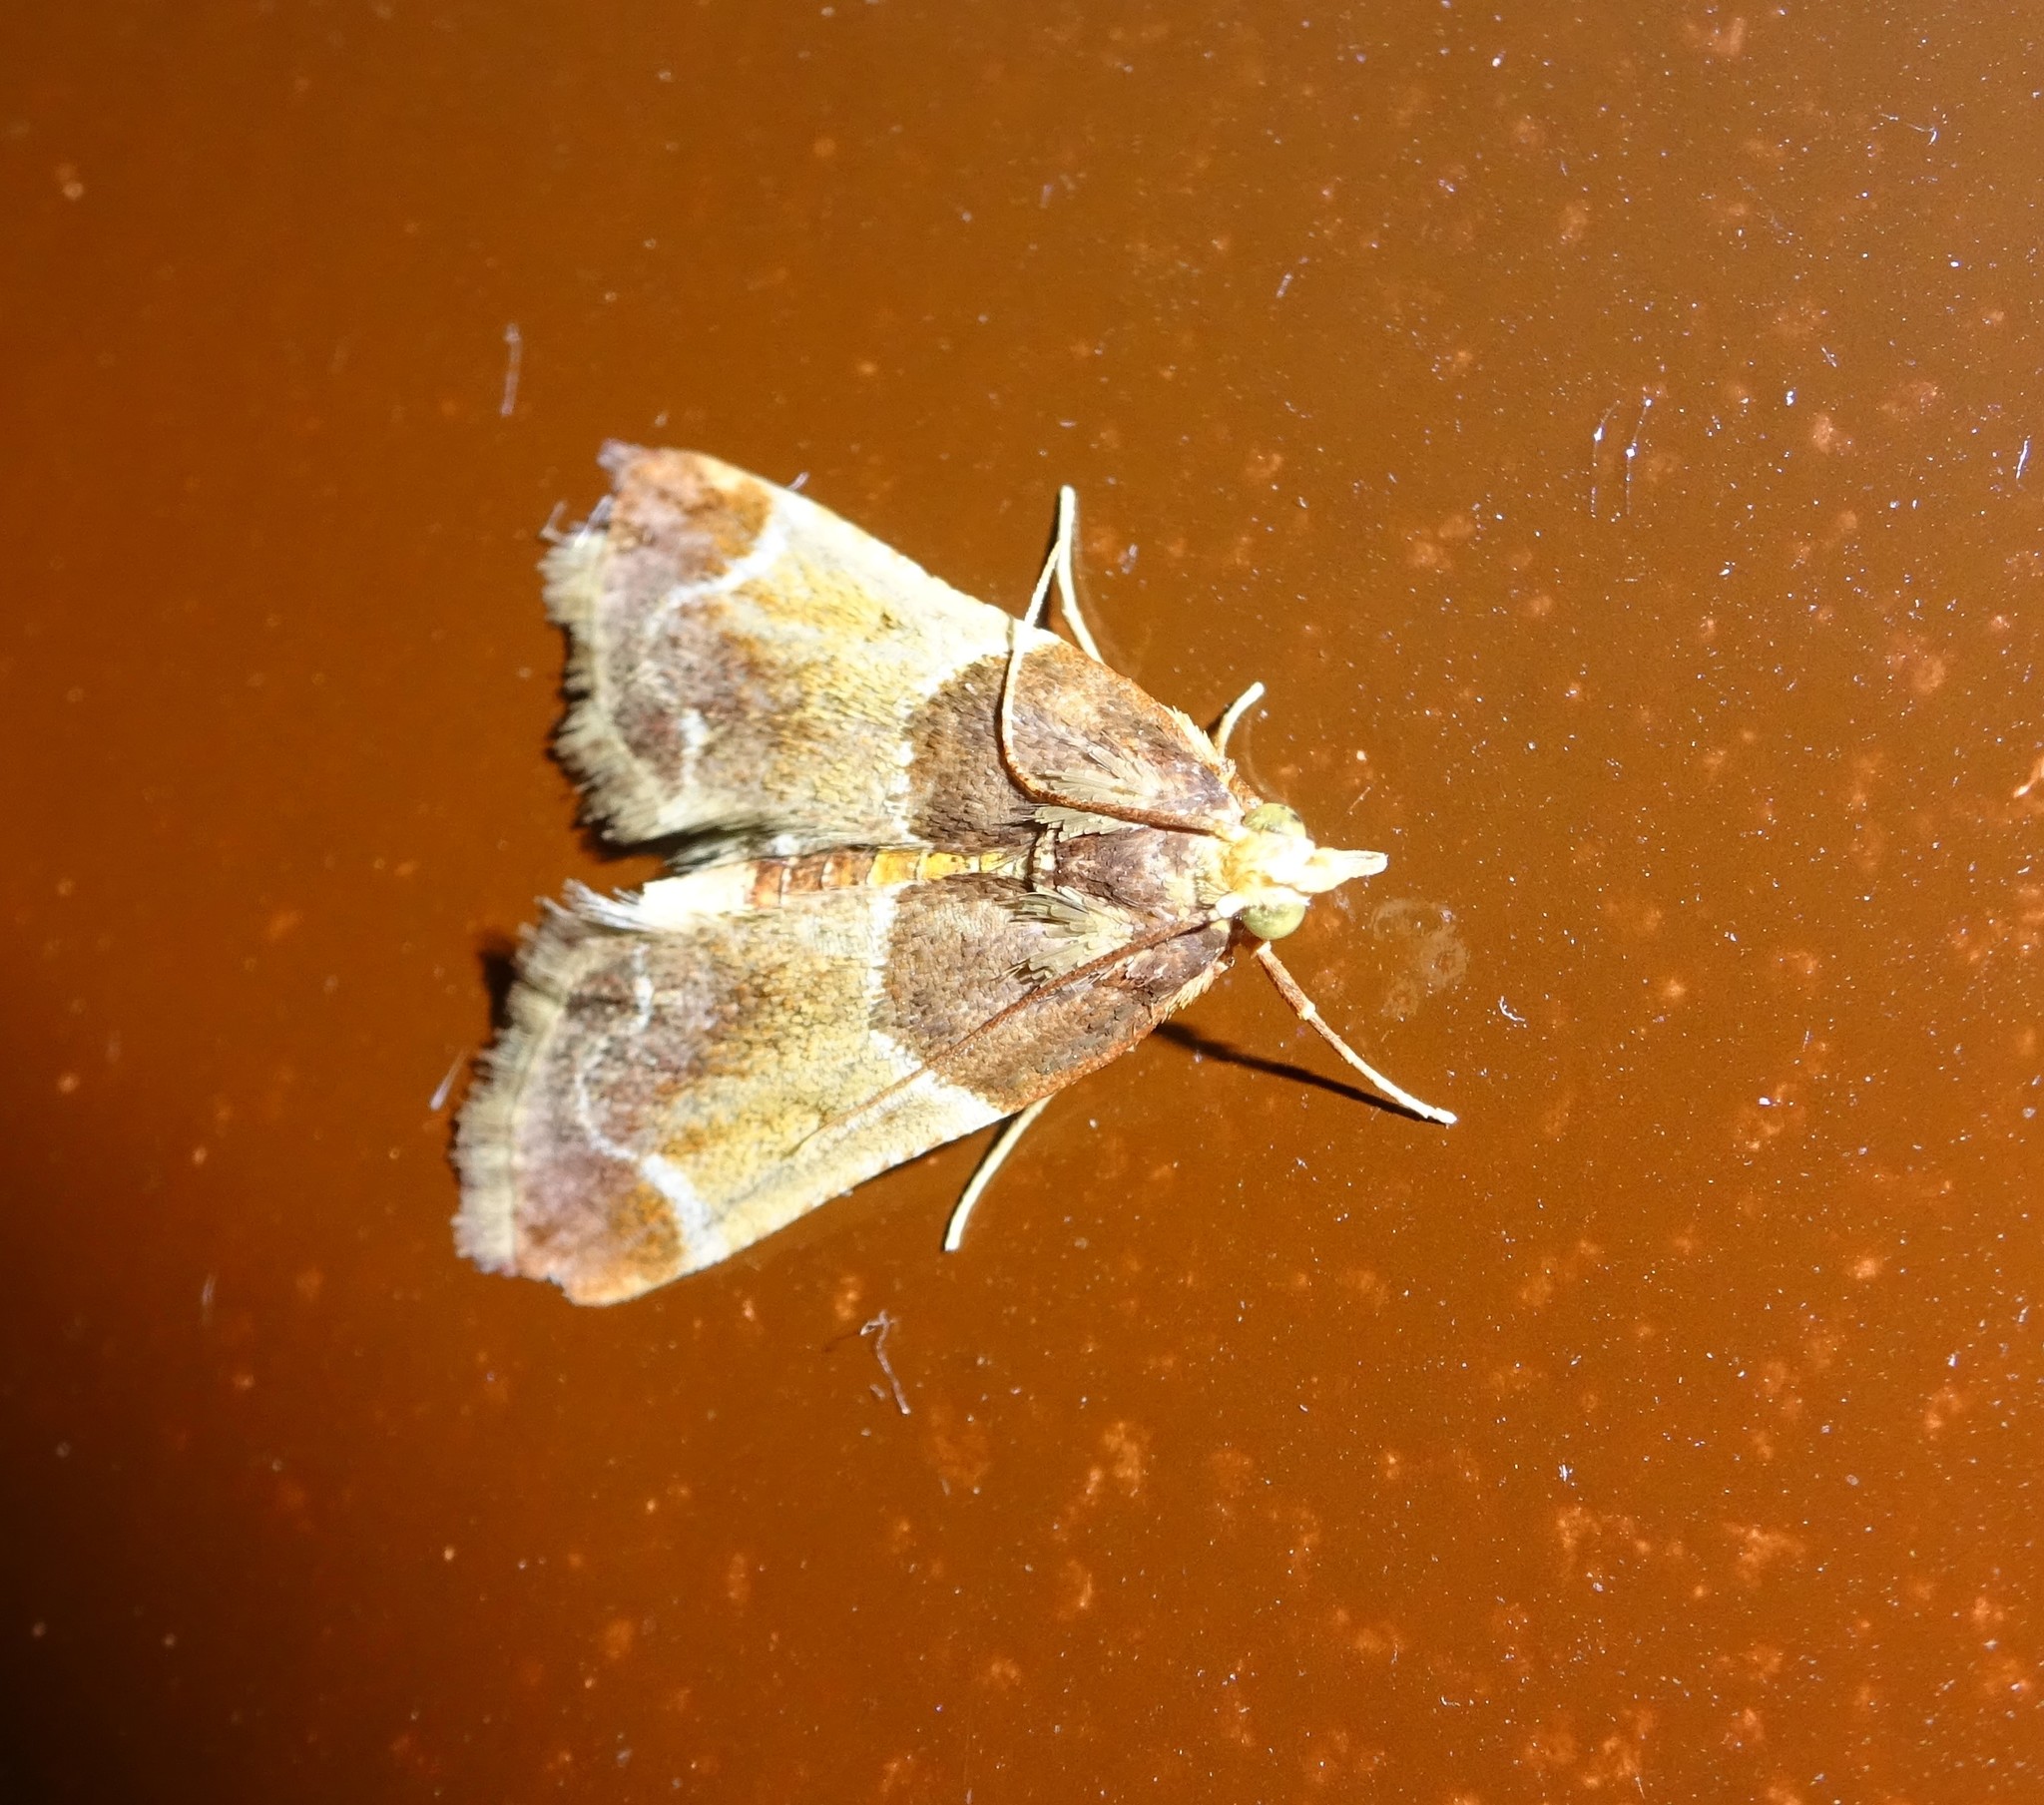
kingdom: Animalia
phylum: Arthropoda
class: Insecta
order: Lepidoptera
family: Pyralidae
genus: Pyralis
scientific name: Pyralis farinalis
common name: Meal moth
